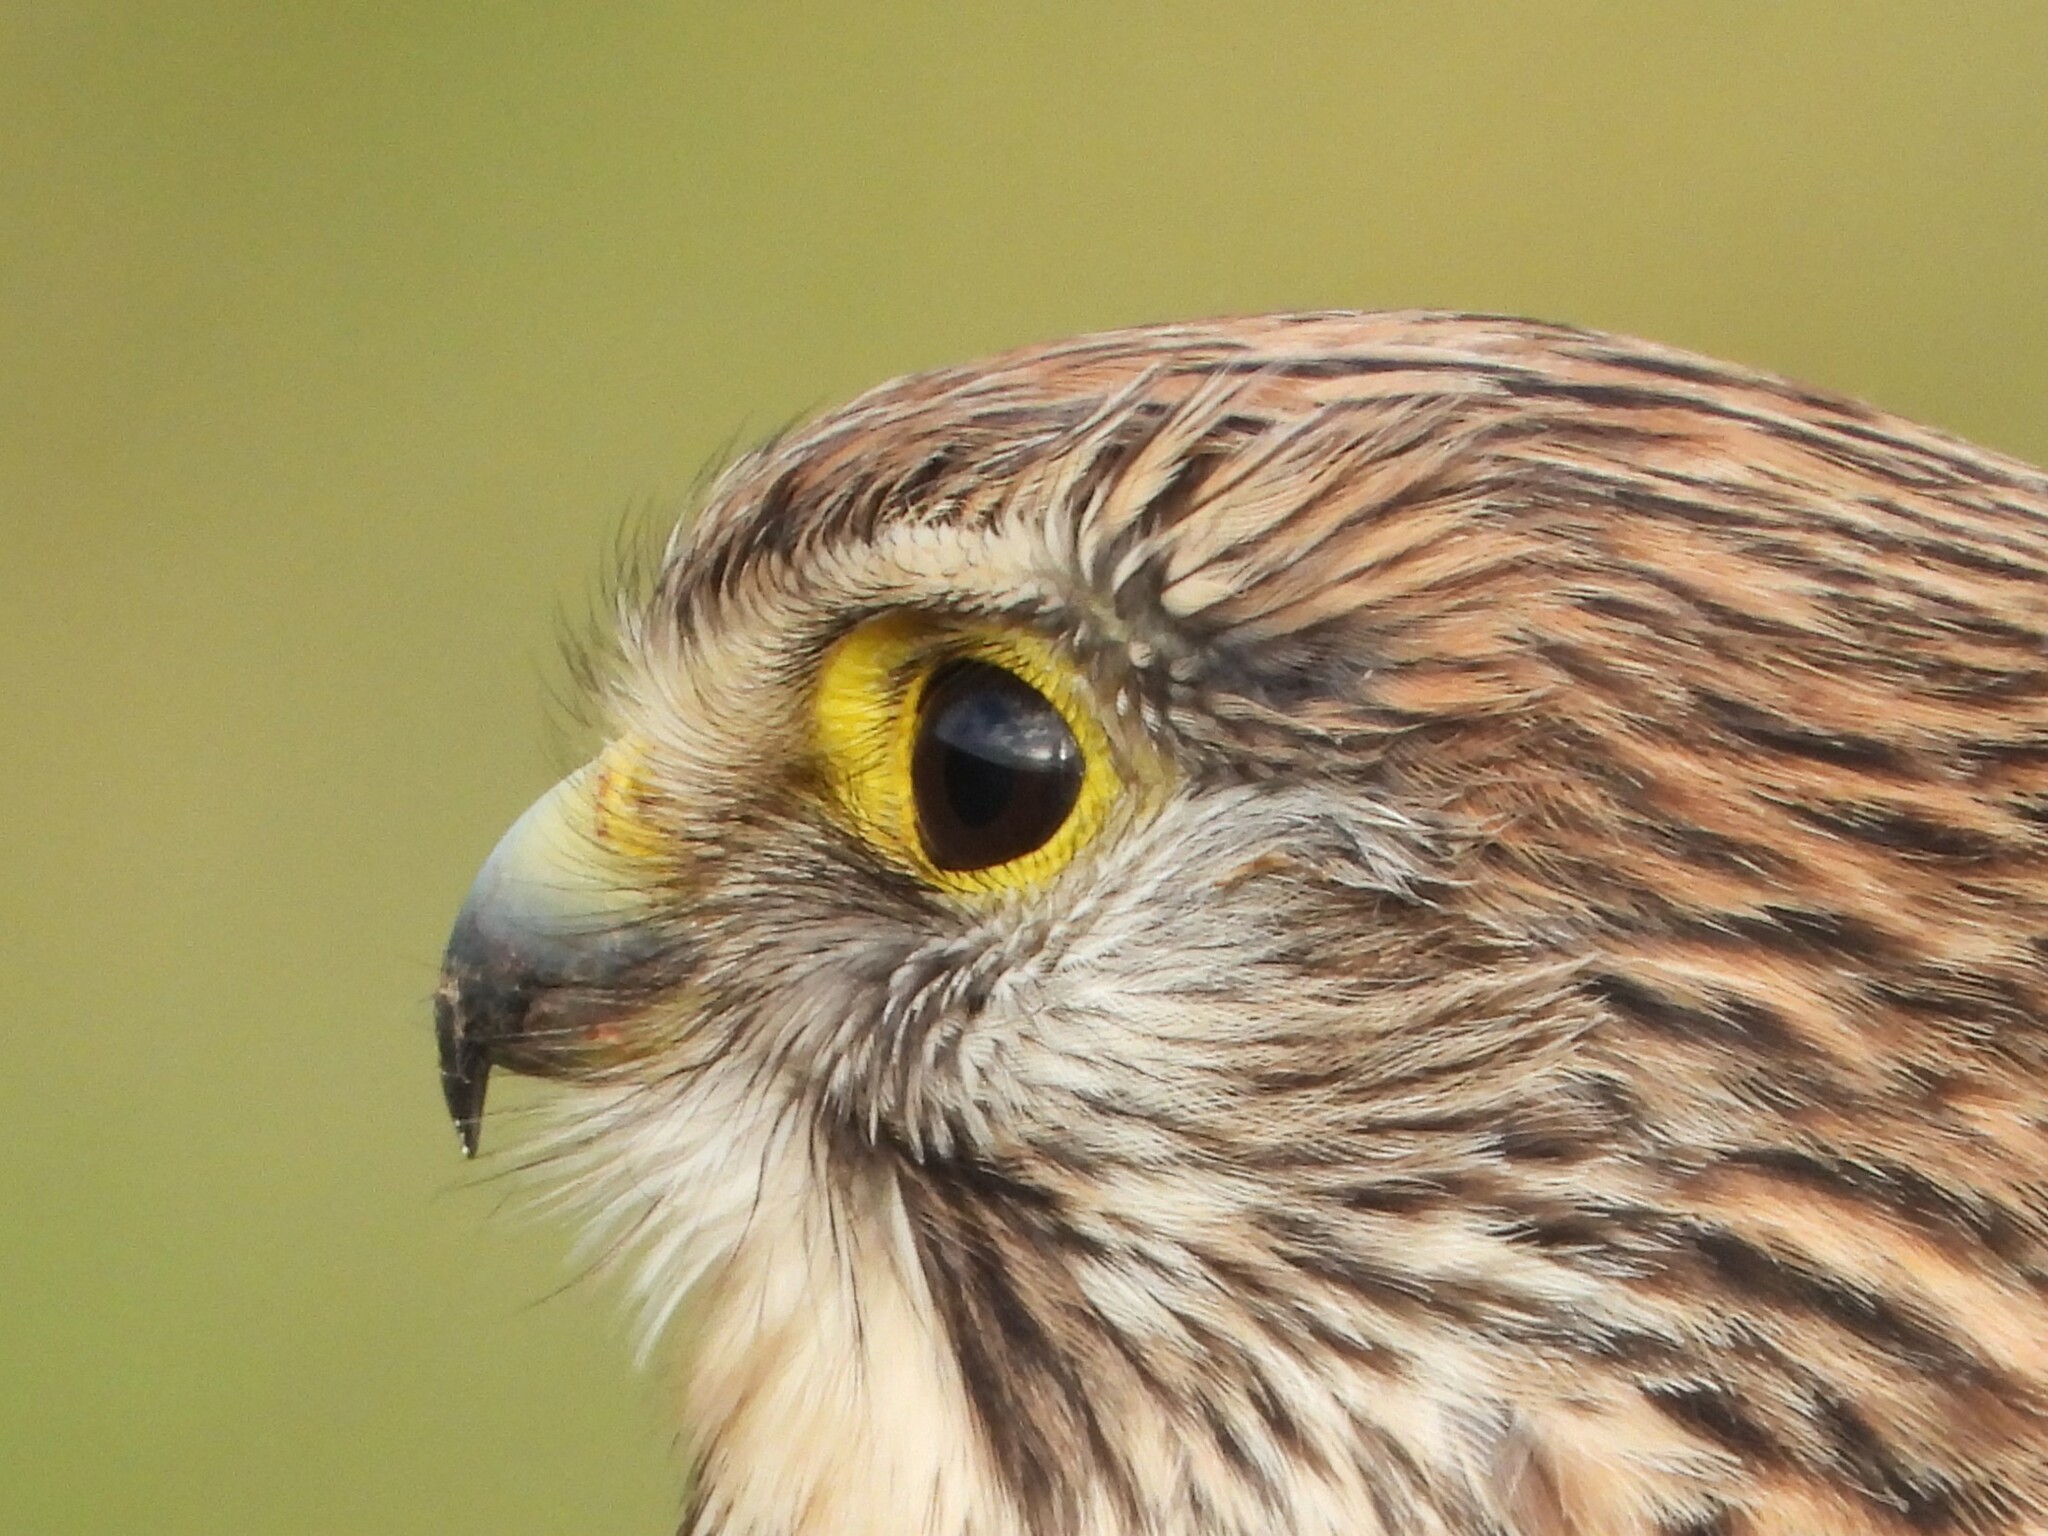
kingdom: Animalia
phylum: Chordata
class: Aves
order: Falconiformes
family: Falconidae
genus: Falco
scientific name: Falco tinnunculus
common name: Common kestrel
